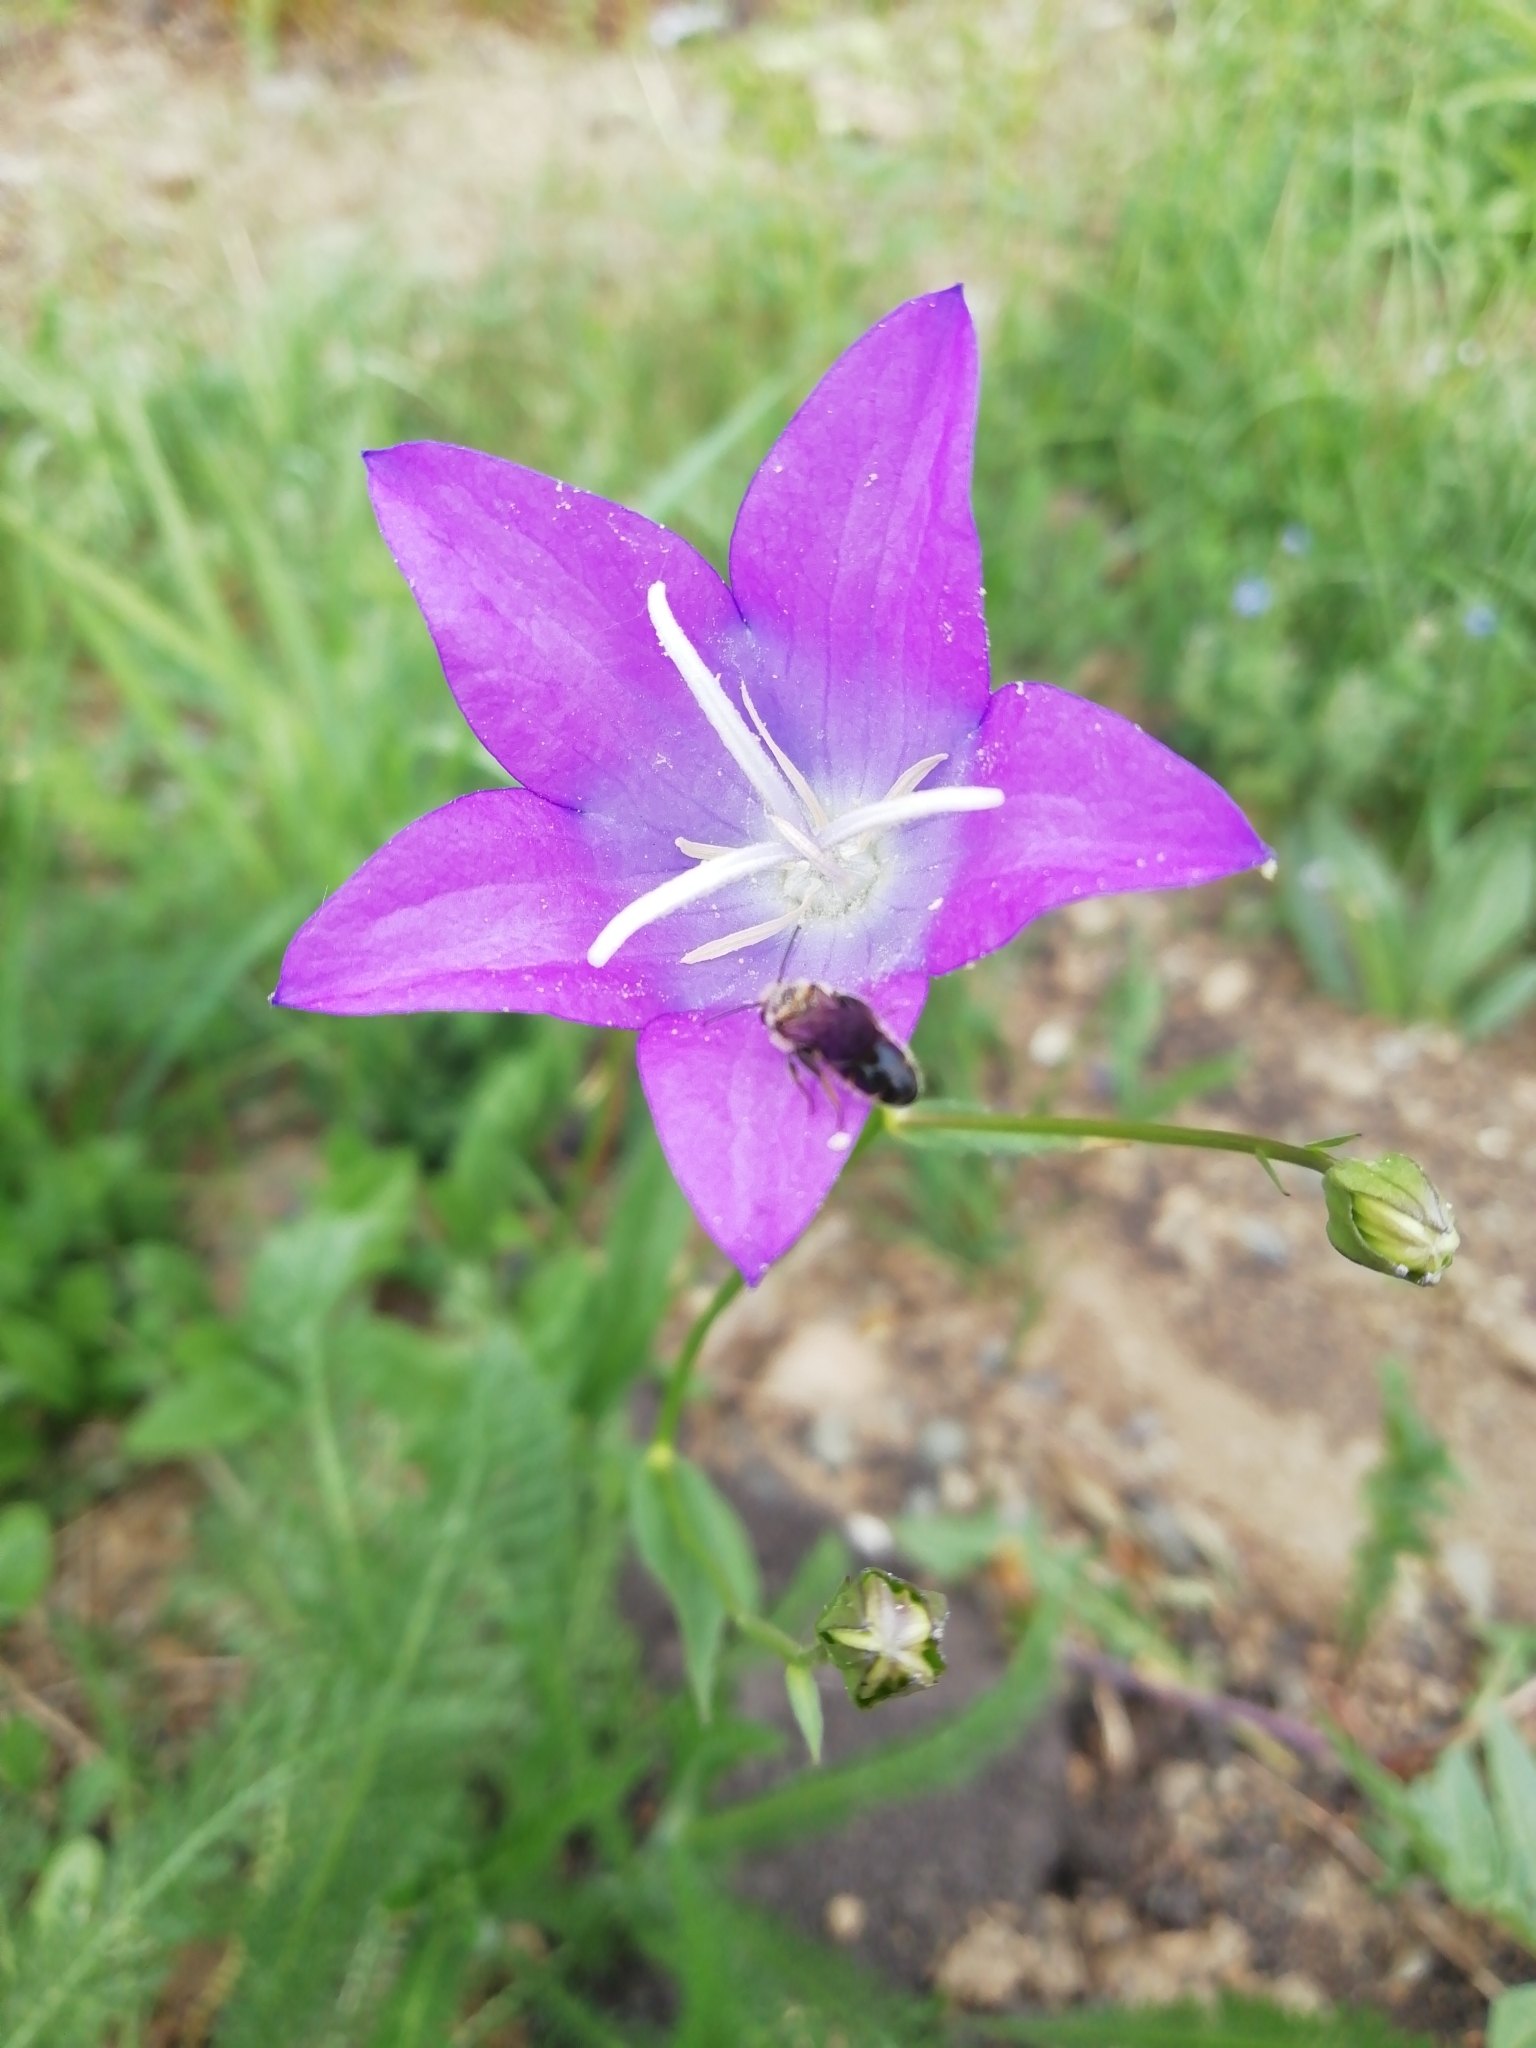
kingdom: Plantae
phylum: Tracheophyta
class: Magnoliopsida
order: Asterales
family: Campanulaceae
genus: Campanula
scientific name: Campanula stevenii
